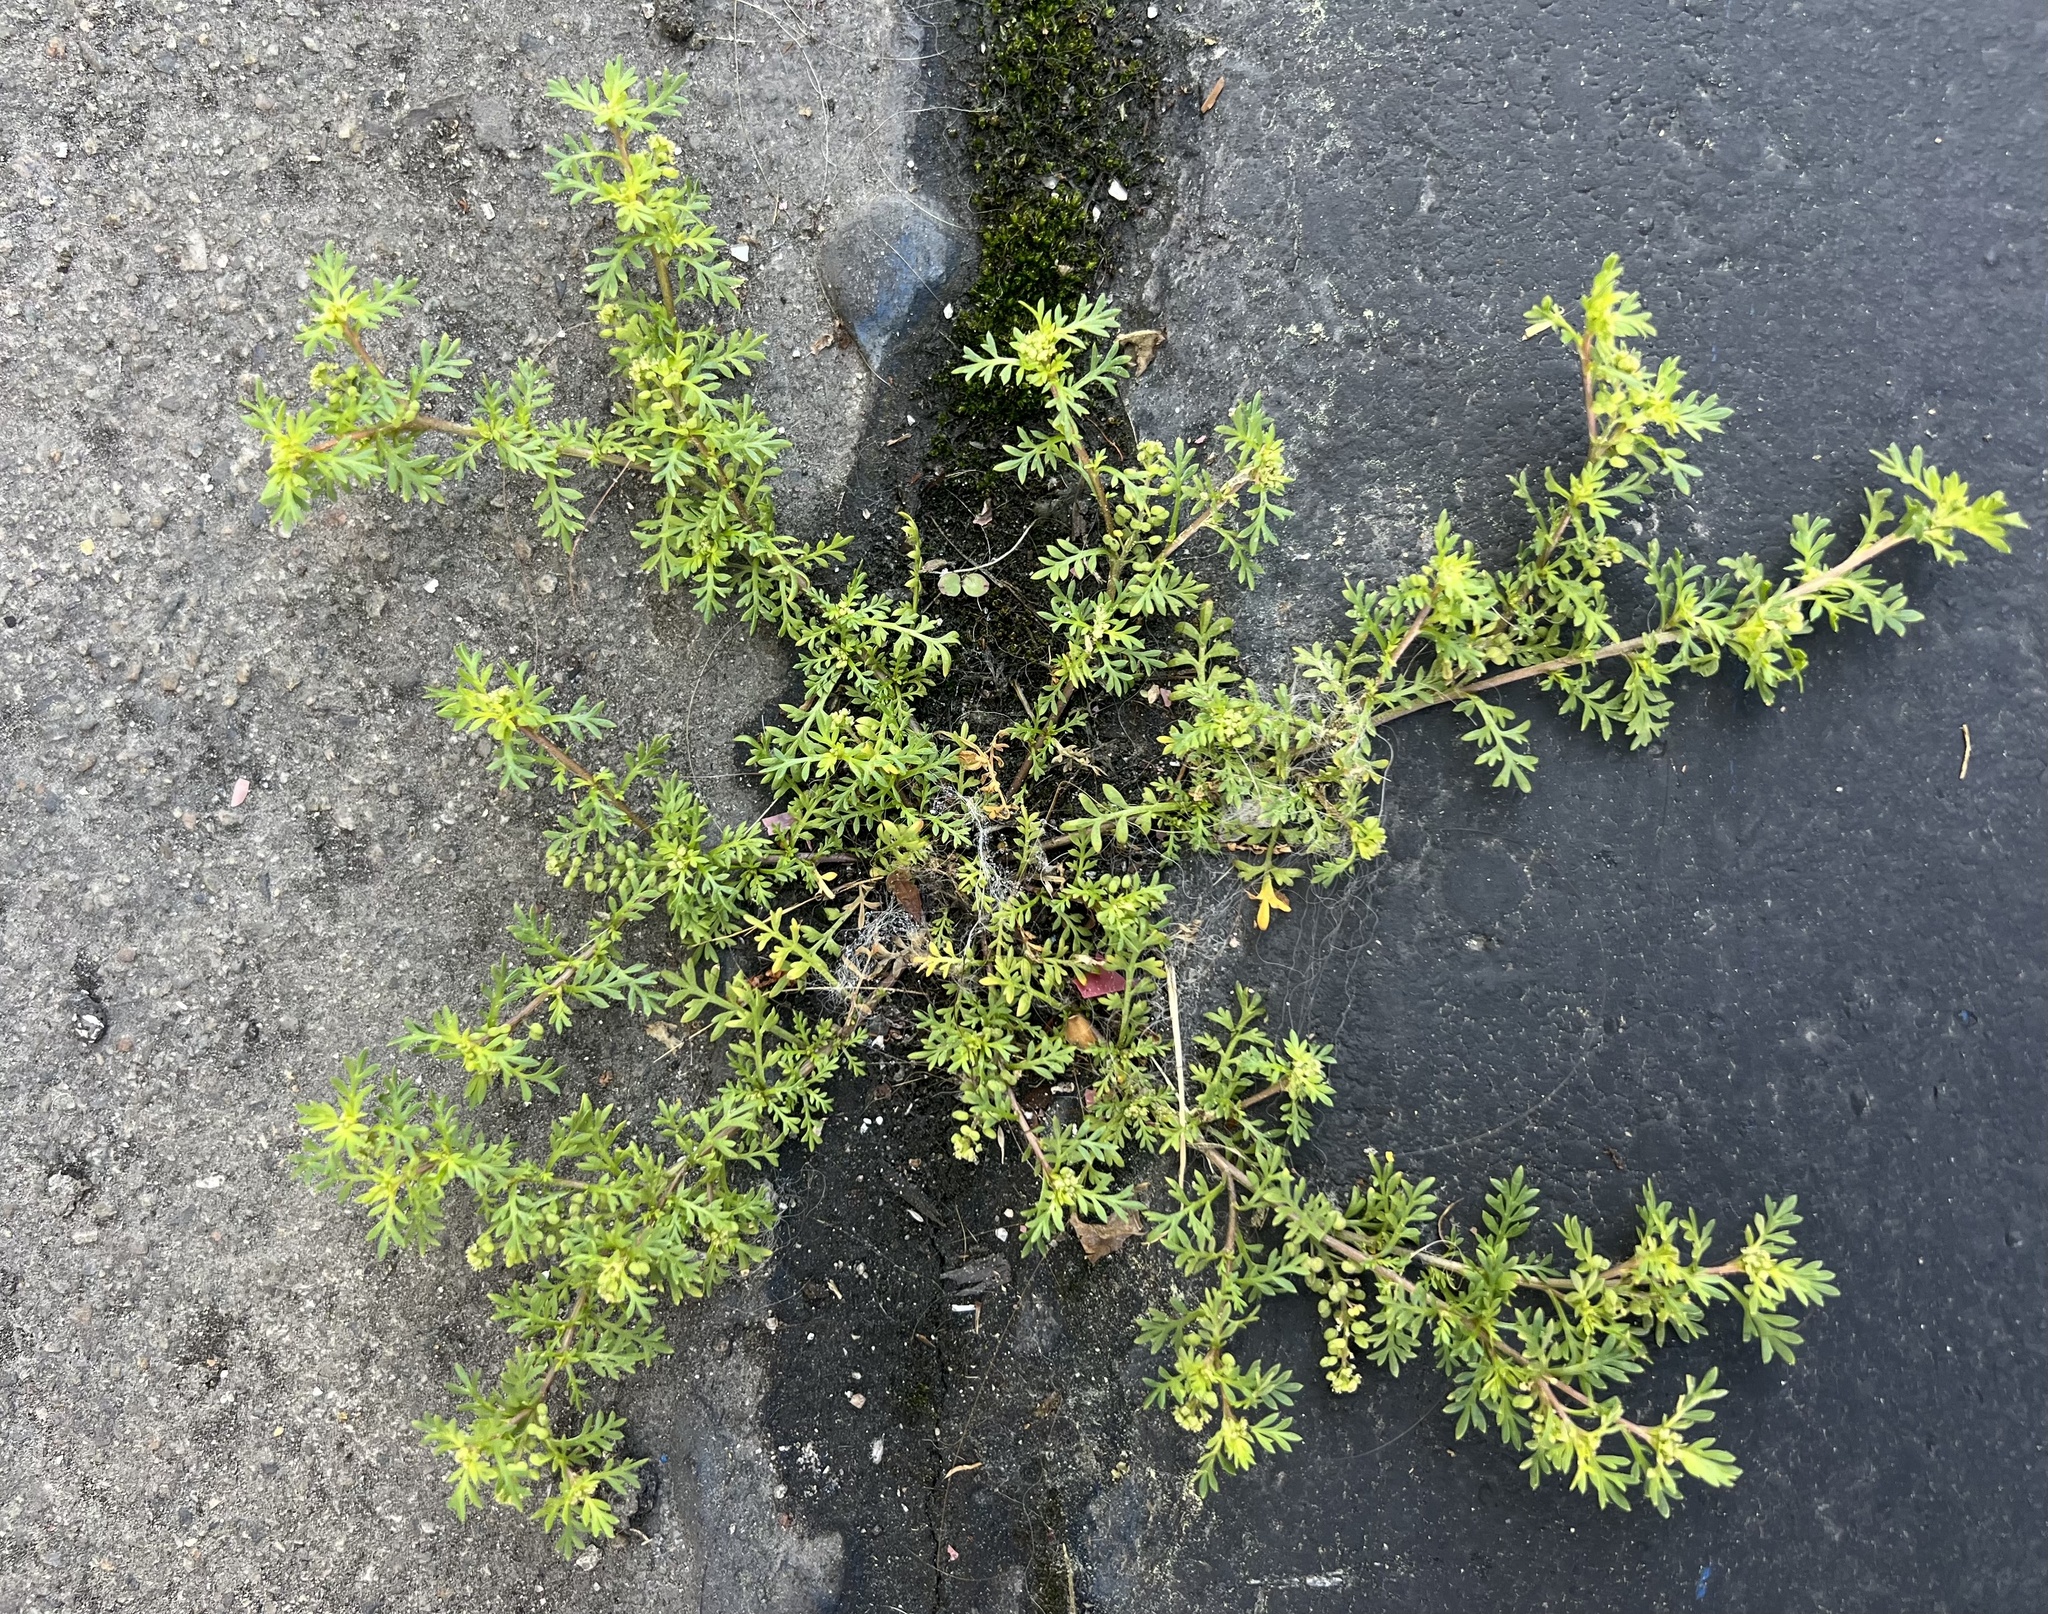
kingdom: Plantae
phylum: Tracheophyta
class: Magnoliopsida
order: Brassicales
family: Brassicaceae
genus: Lepidium
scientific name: Lepidium didymum
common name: Lesser swinecress
